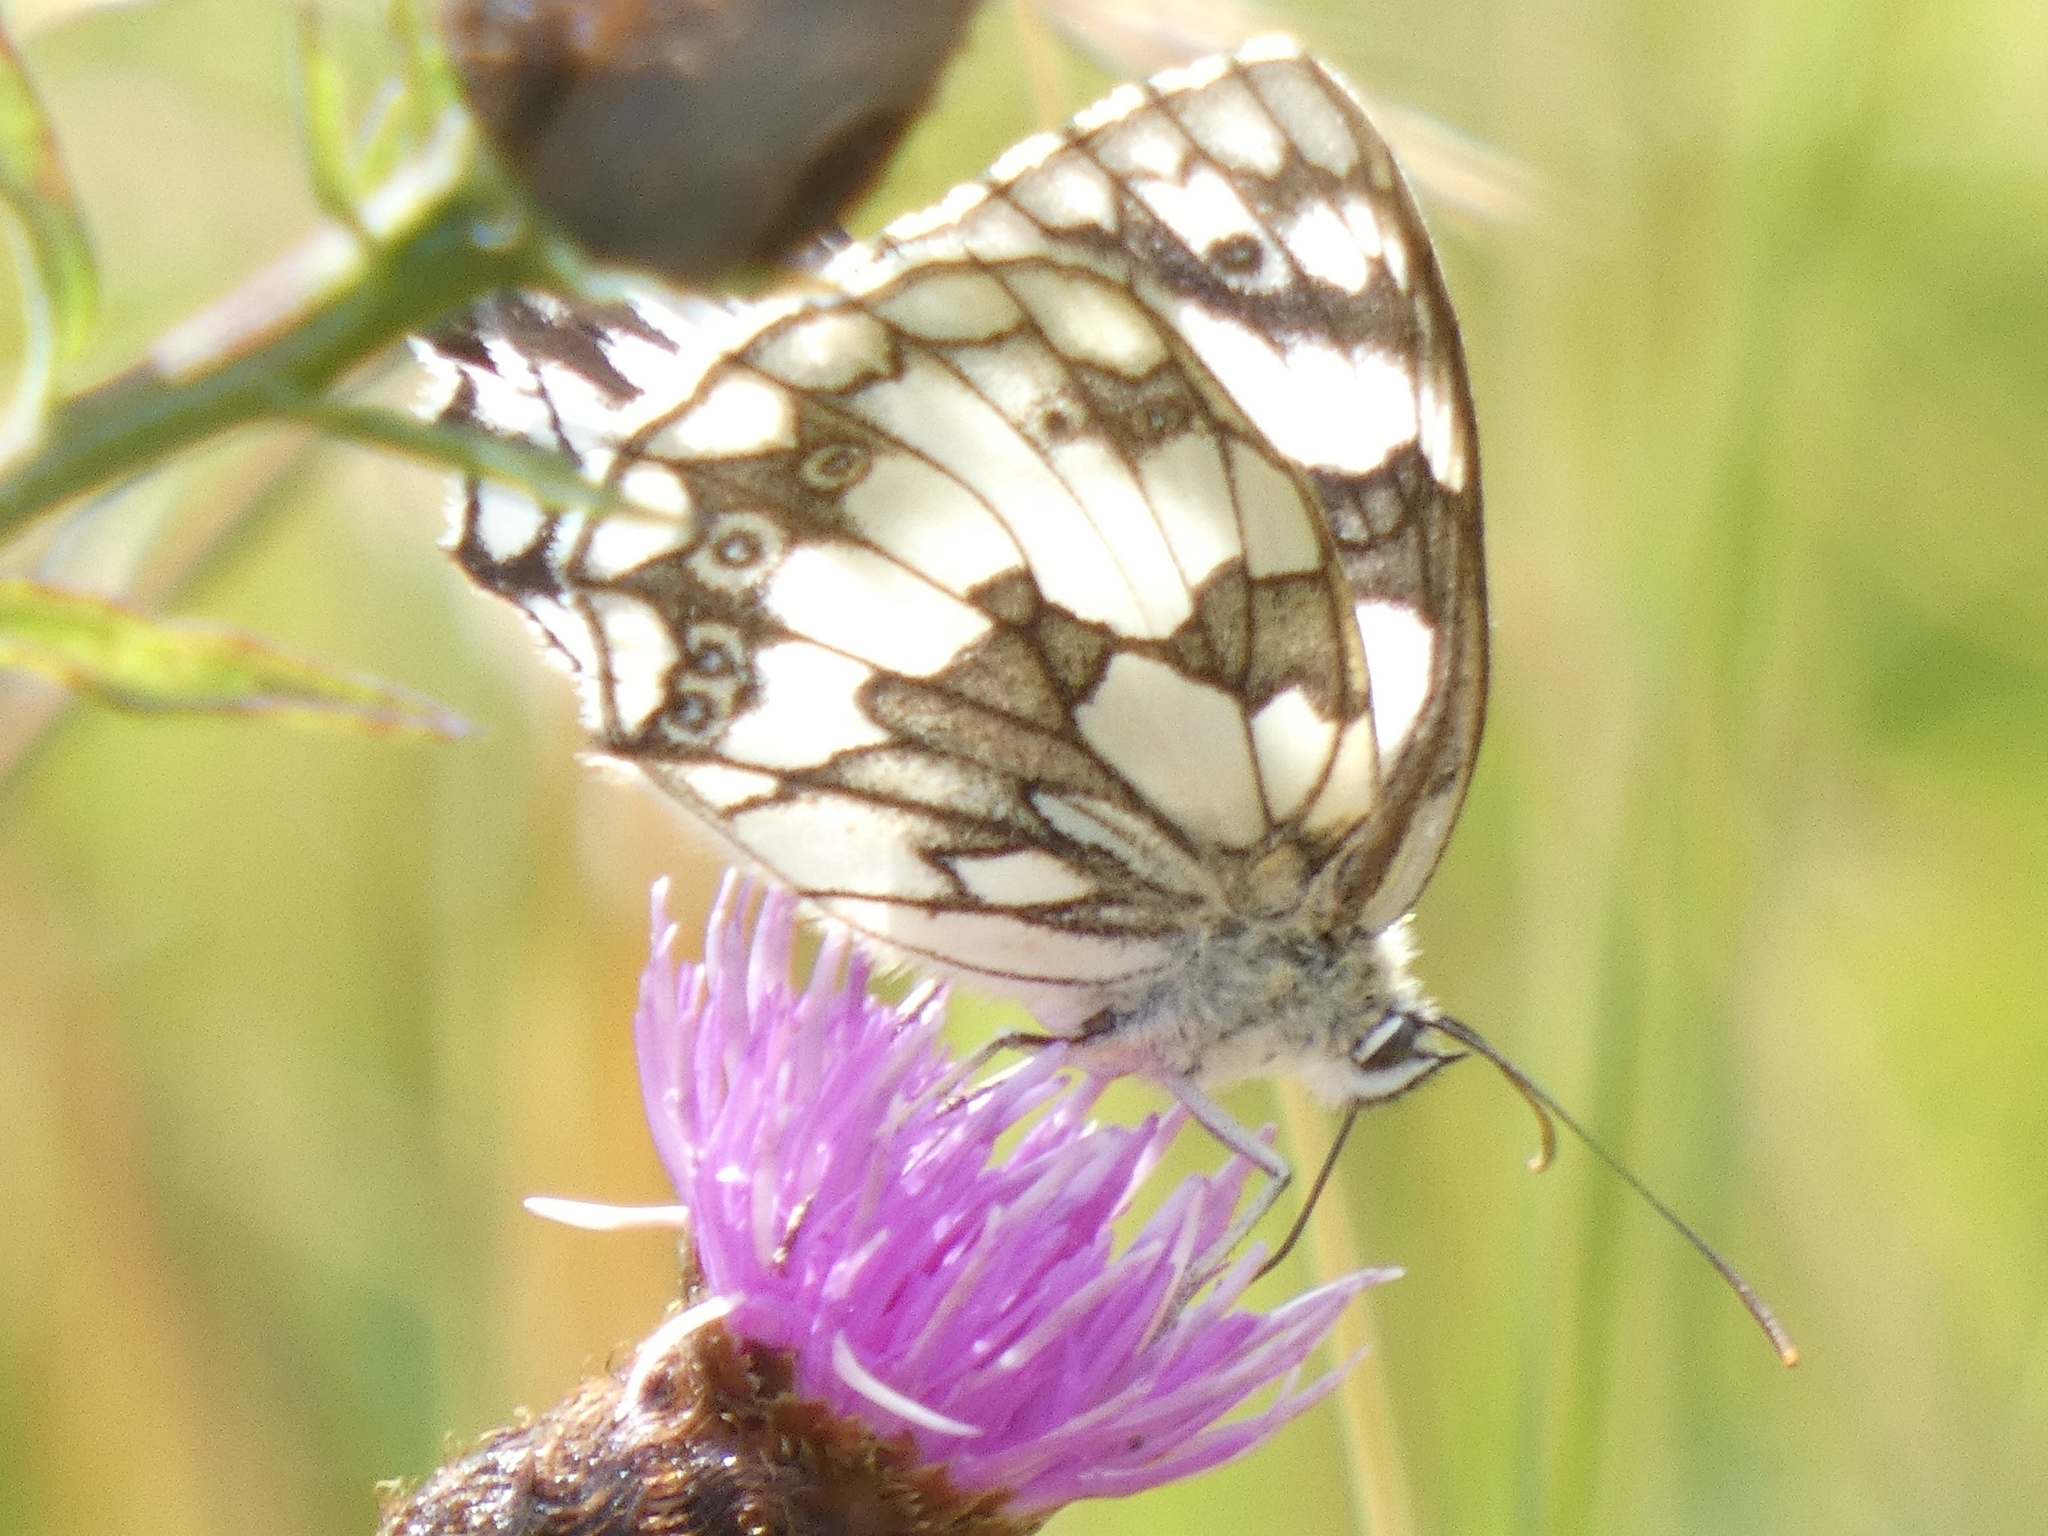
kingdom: Animalia
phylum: Arthropoda
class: Insecta
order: Lepidoptera
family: Nymphalidae
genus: Melanargia
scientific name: Melanargia galathea
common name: Marbled white
